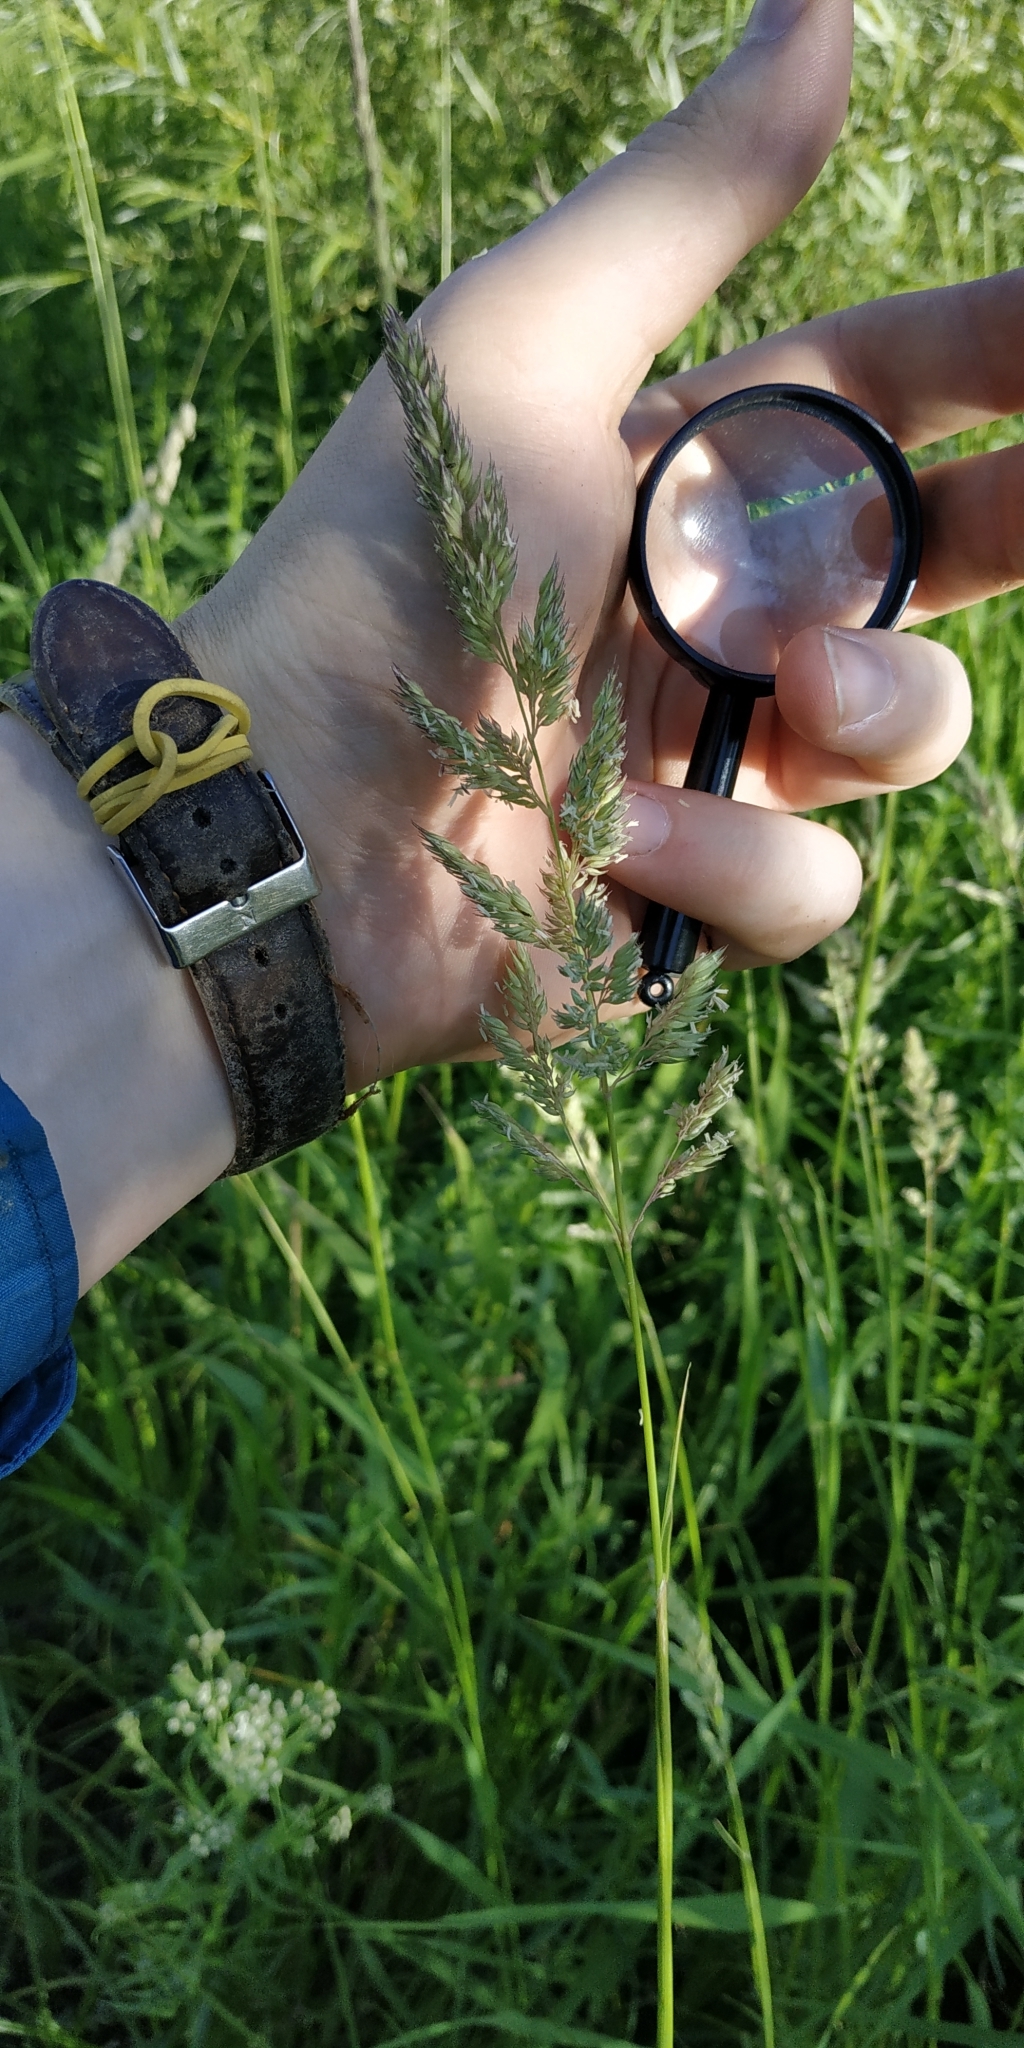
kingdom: Plantae
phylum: Tracheophyta
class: Liliopsida
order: Poales
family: Poaceae
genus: Phalaris
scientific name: Phalaris arundinacea
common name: Reed canary-grass
